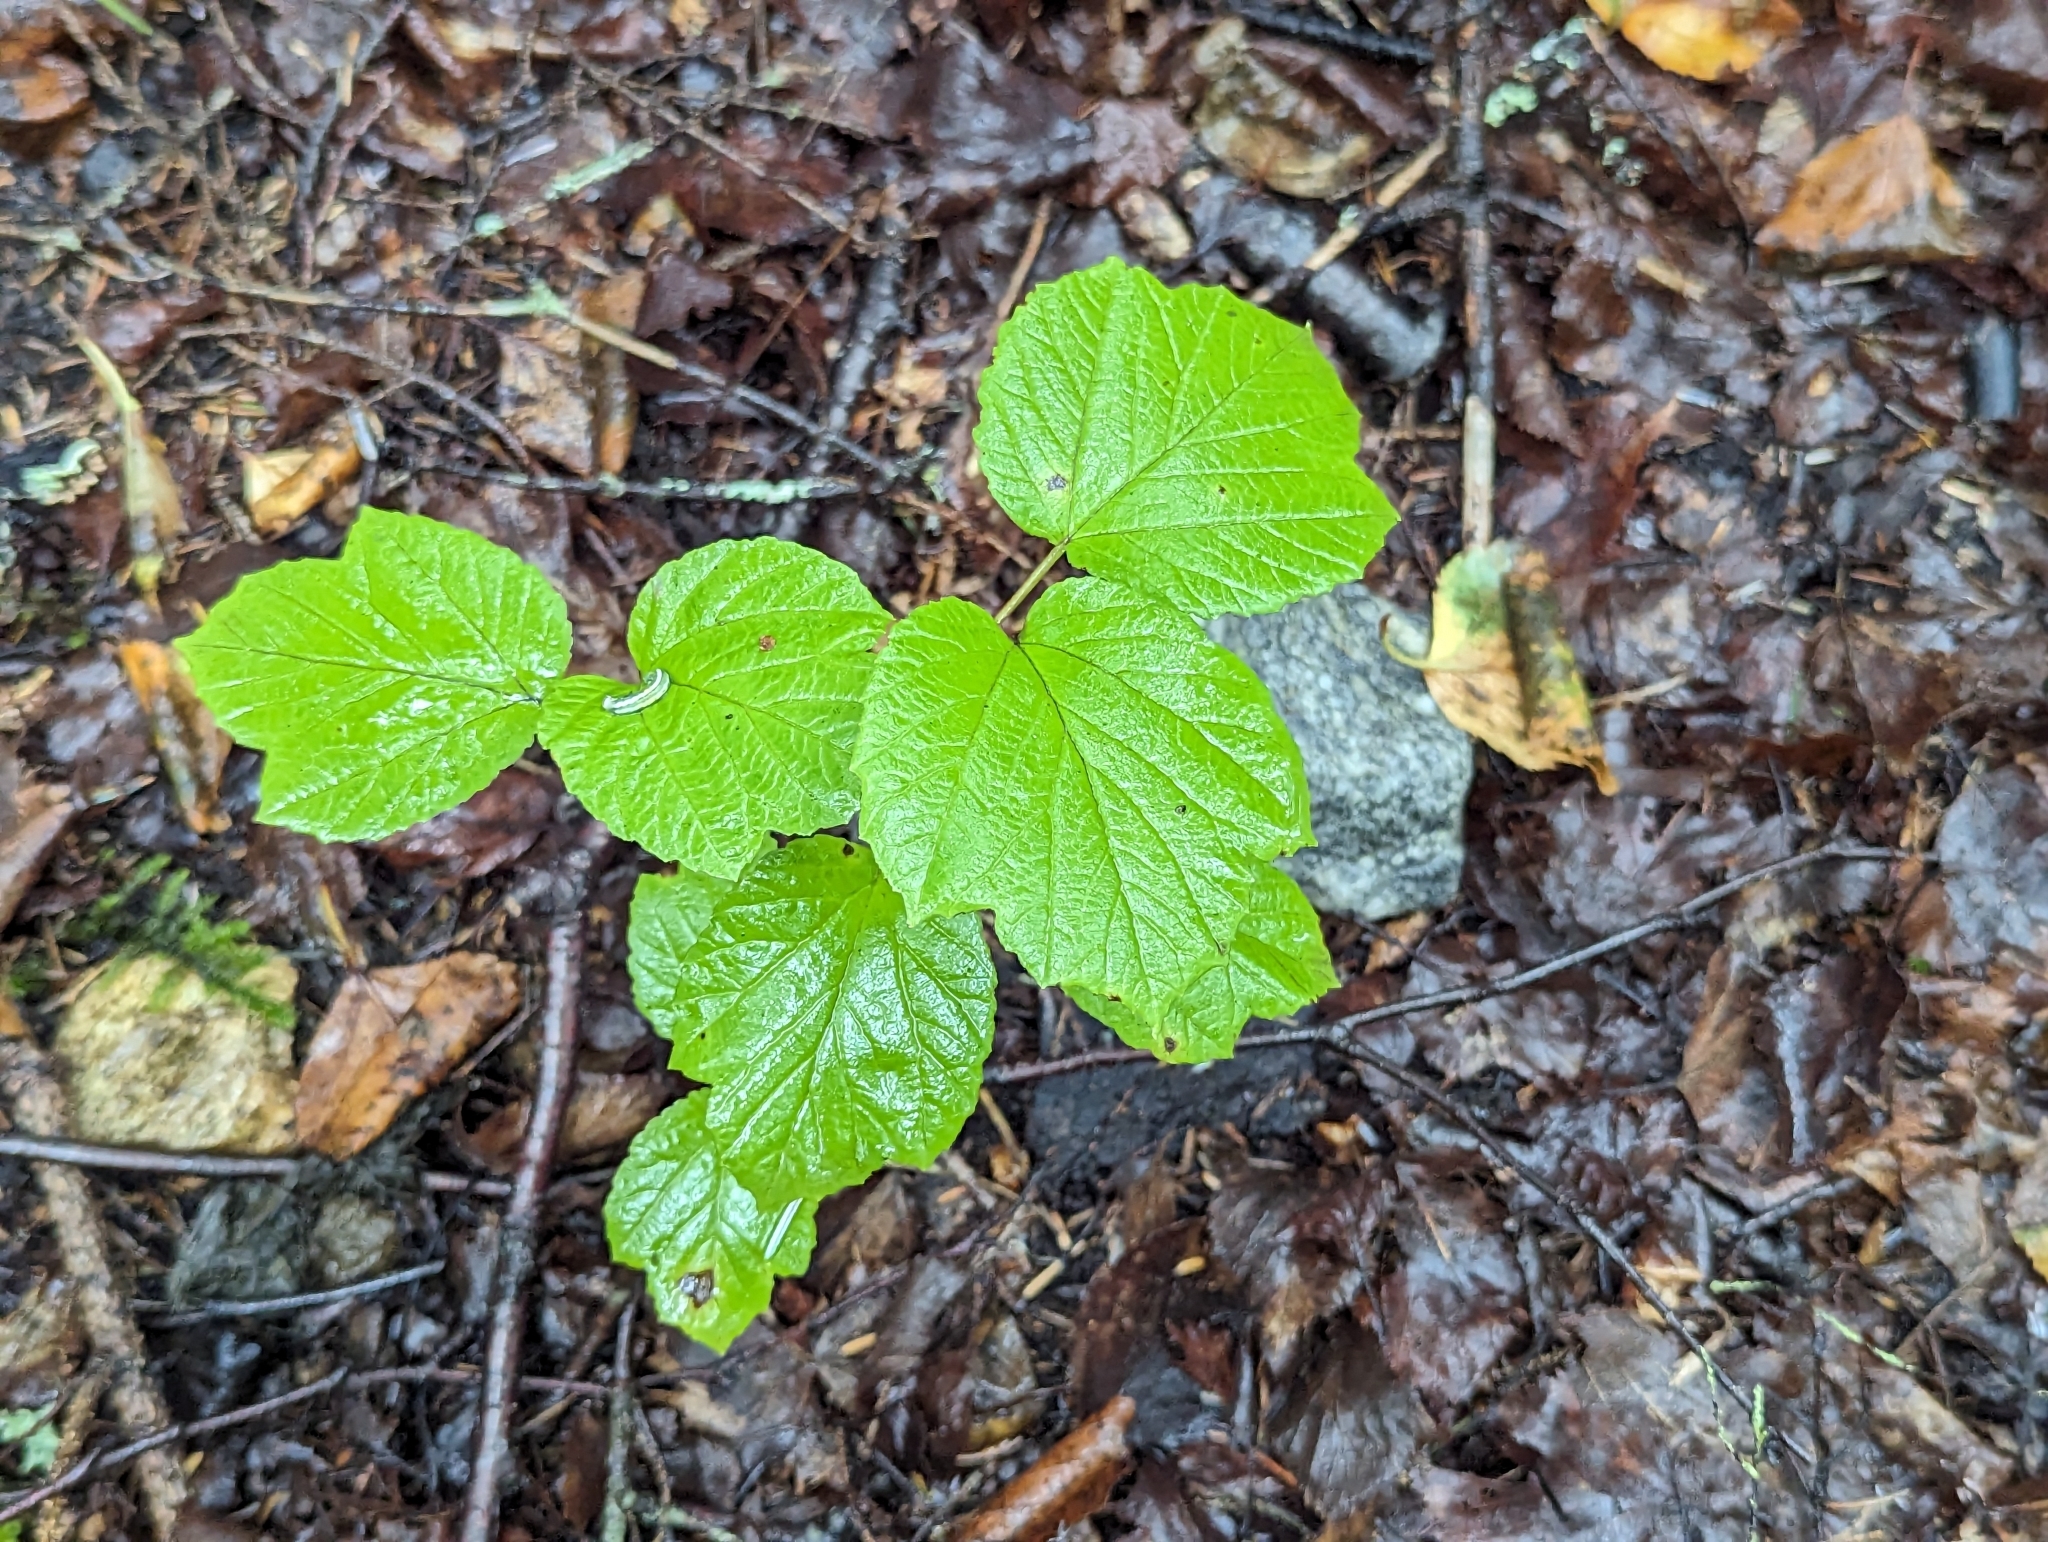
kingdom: Plantae
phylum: Tracheophyta
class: Magnoliopsida
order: Dipsacales
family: Viburnaceae
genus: Viburnum
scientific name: Viburnum edule
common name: Mooseberry
